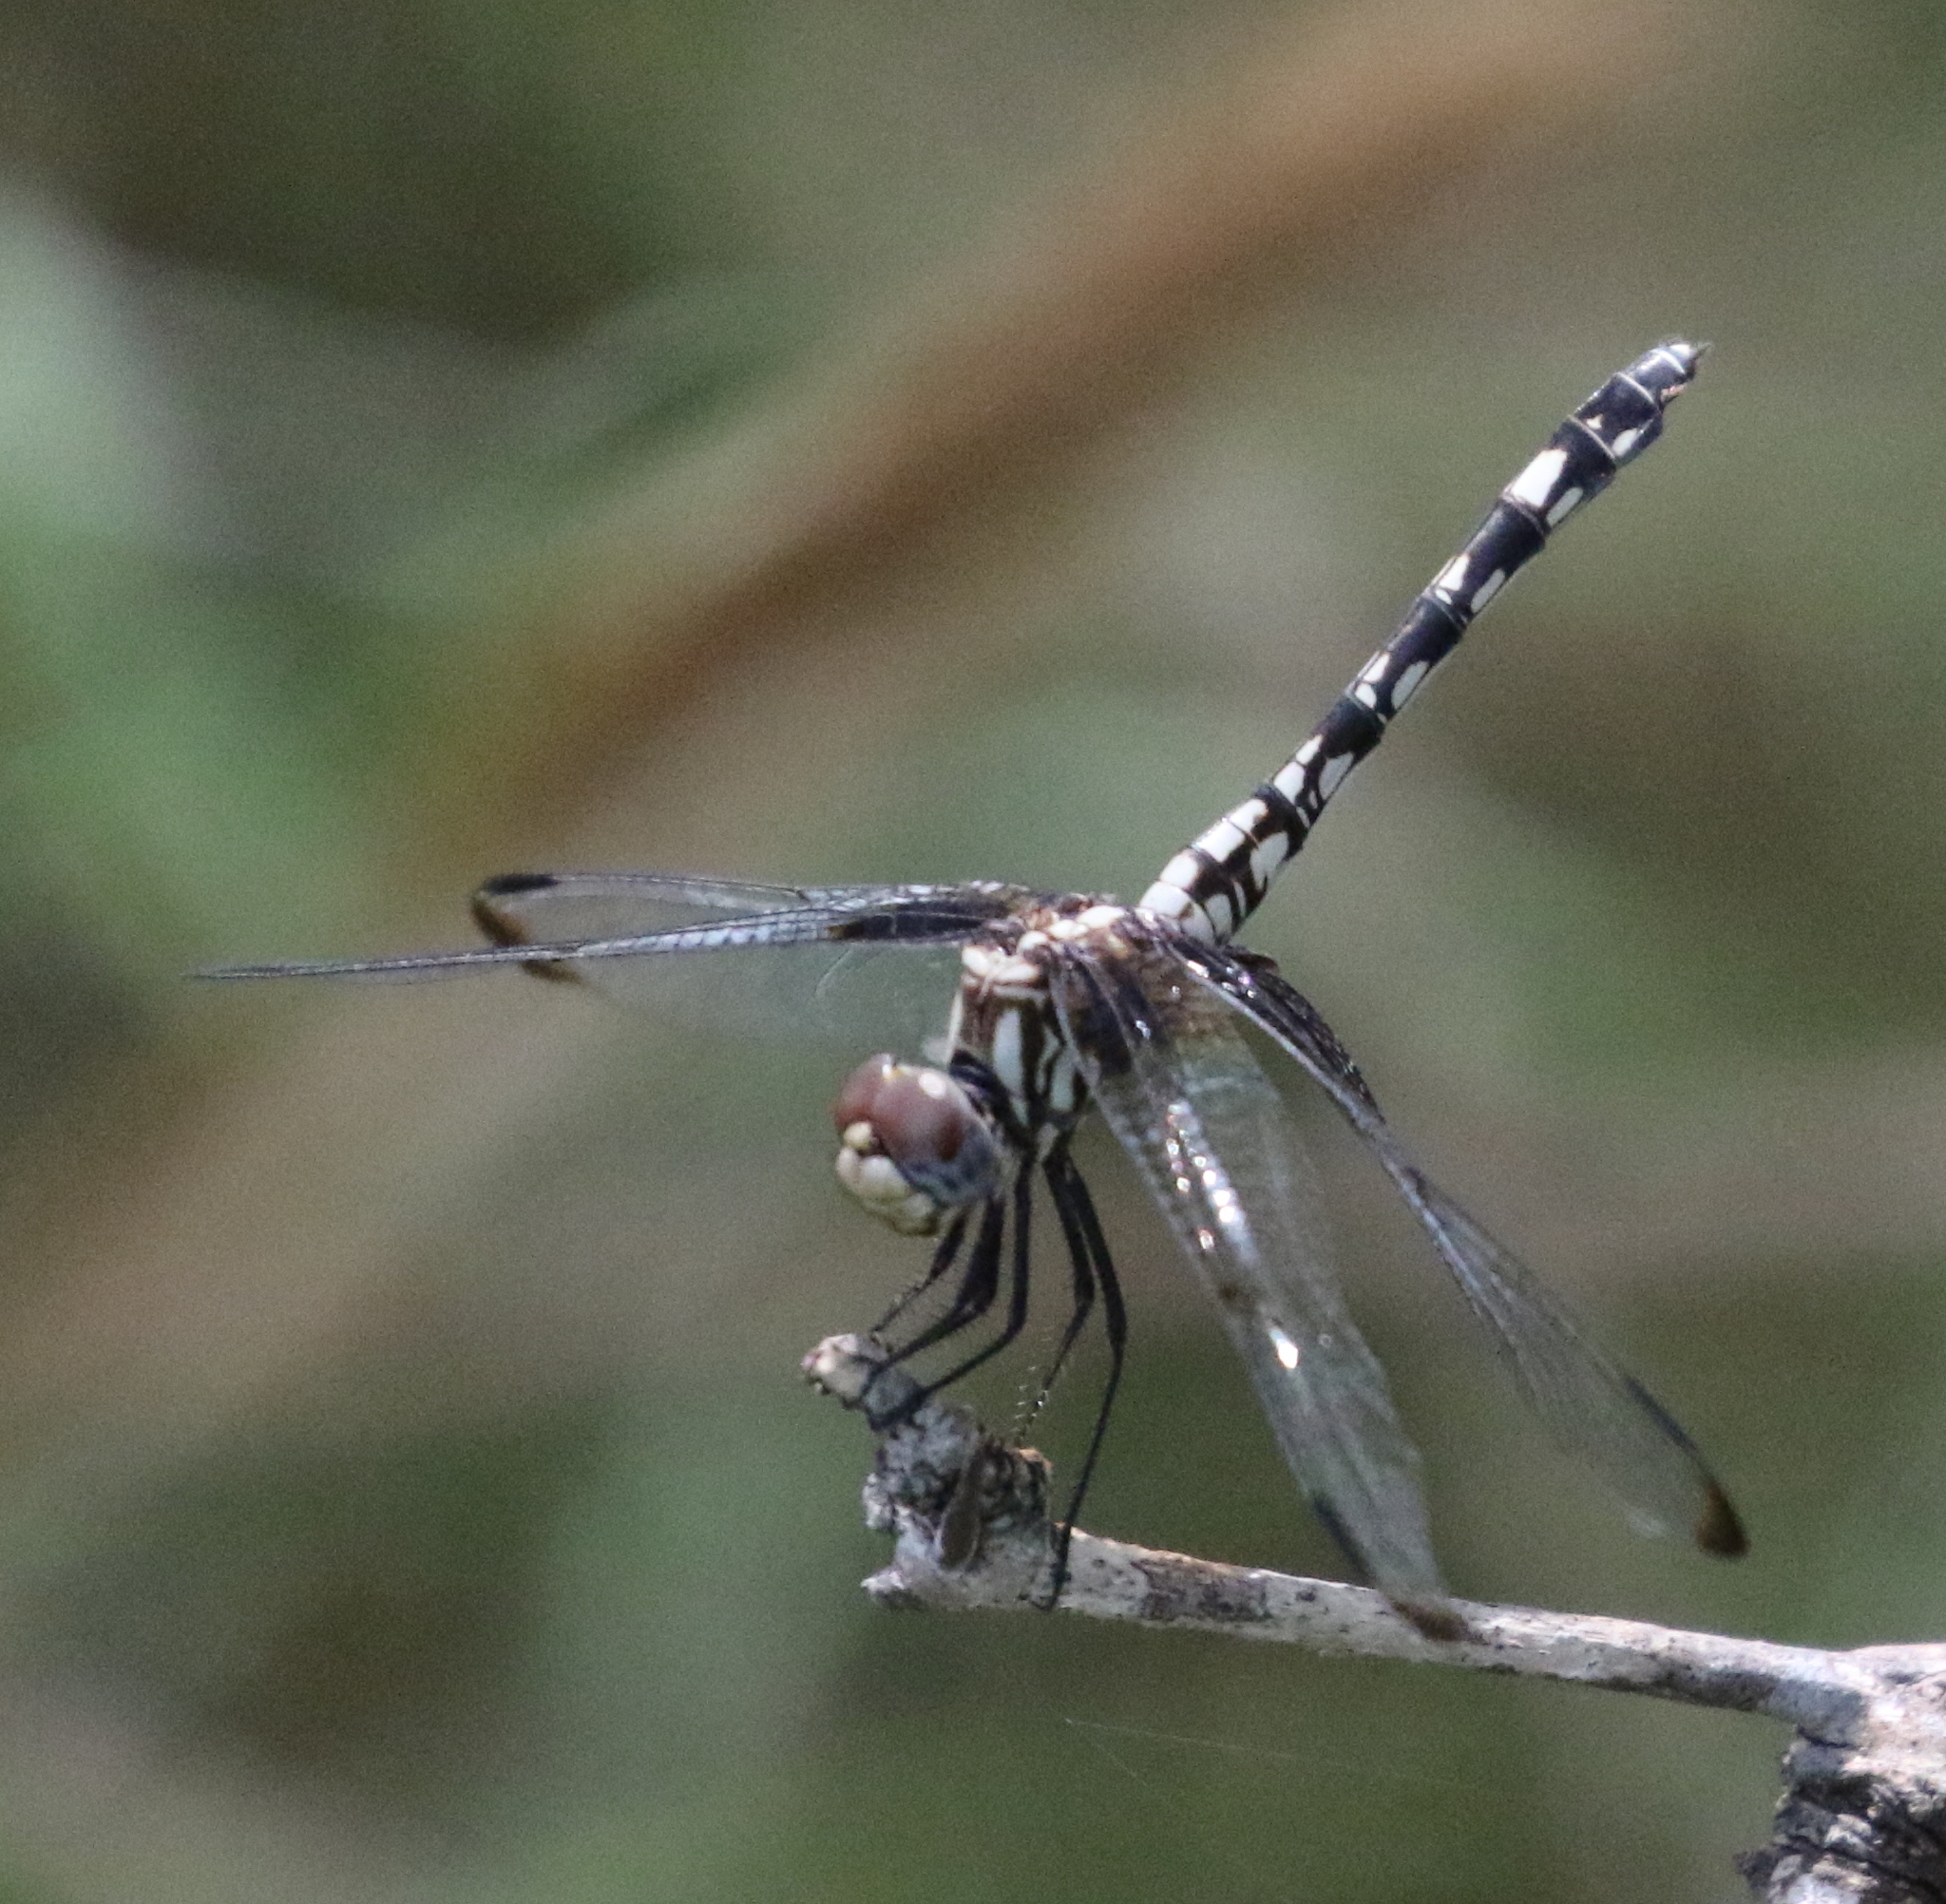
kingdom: Animalia
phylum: Arthropoda
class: Insecta
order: Odonata
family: Libellulidae
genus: Dythemis
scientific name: Dythemis fugax
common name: Checkered setwing
